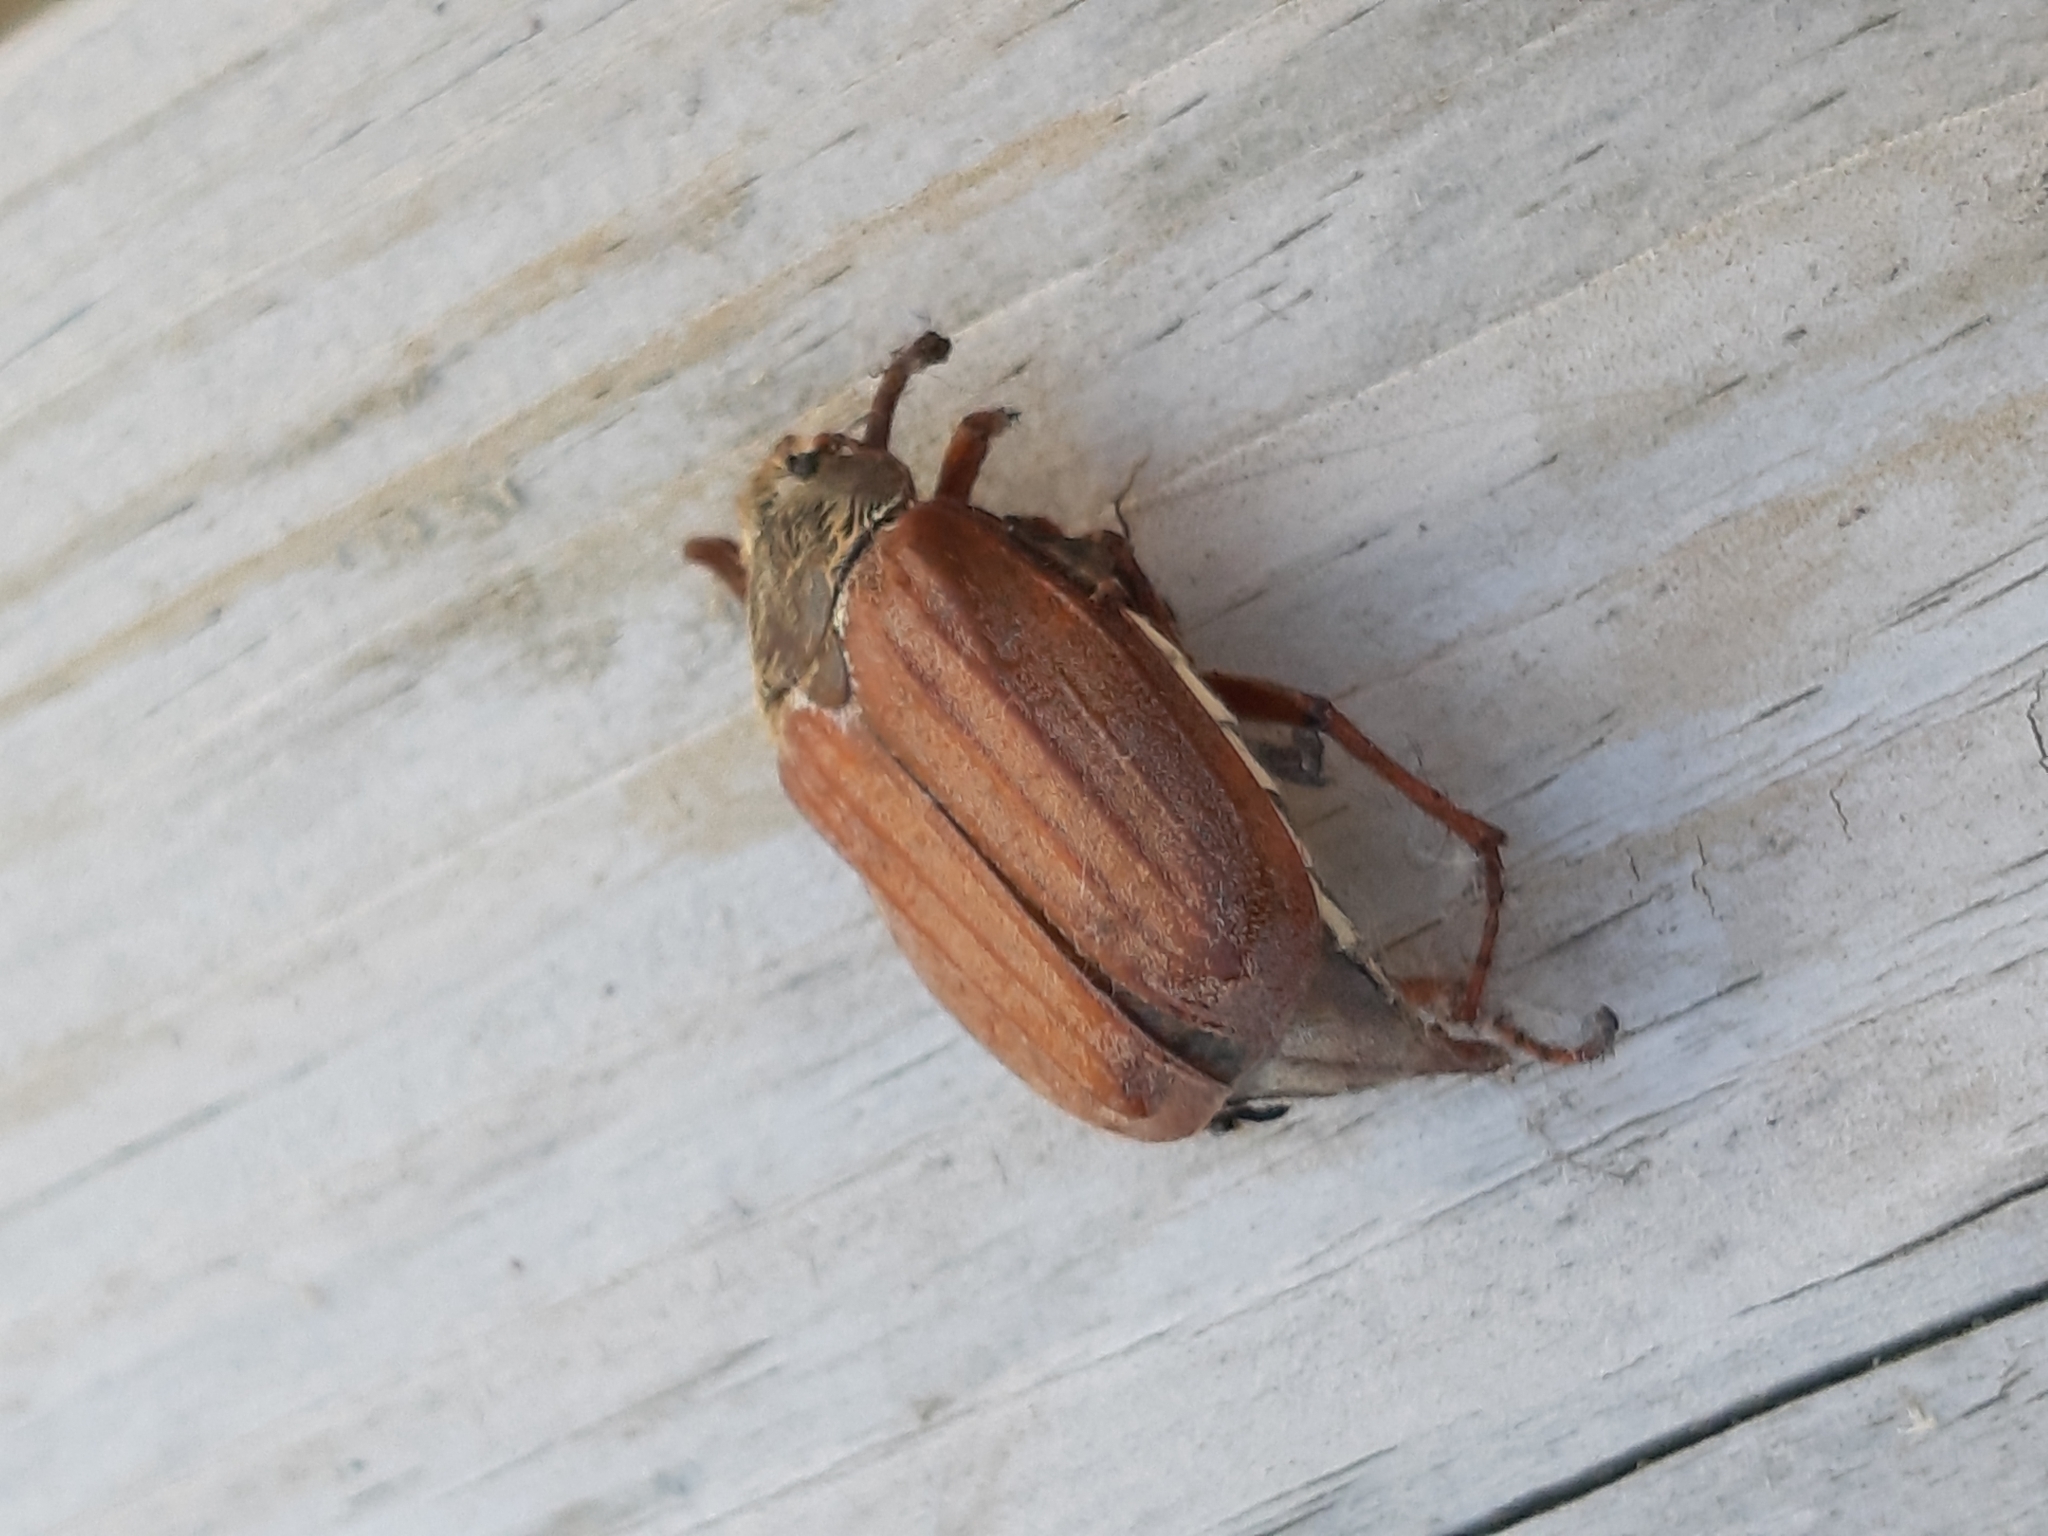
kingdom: Animalia
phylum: Arthropoda
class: Insecta
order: Coleoptera
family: Scarabaeidae
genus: Melolontha
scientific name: Melolontha melolontha
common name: Cockchafer maybeetle
